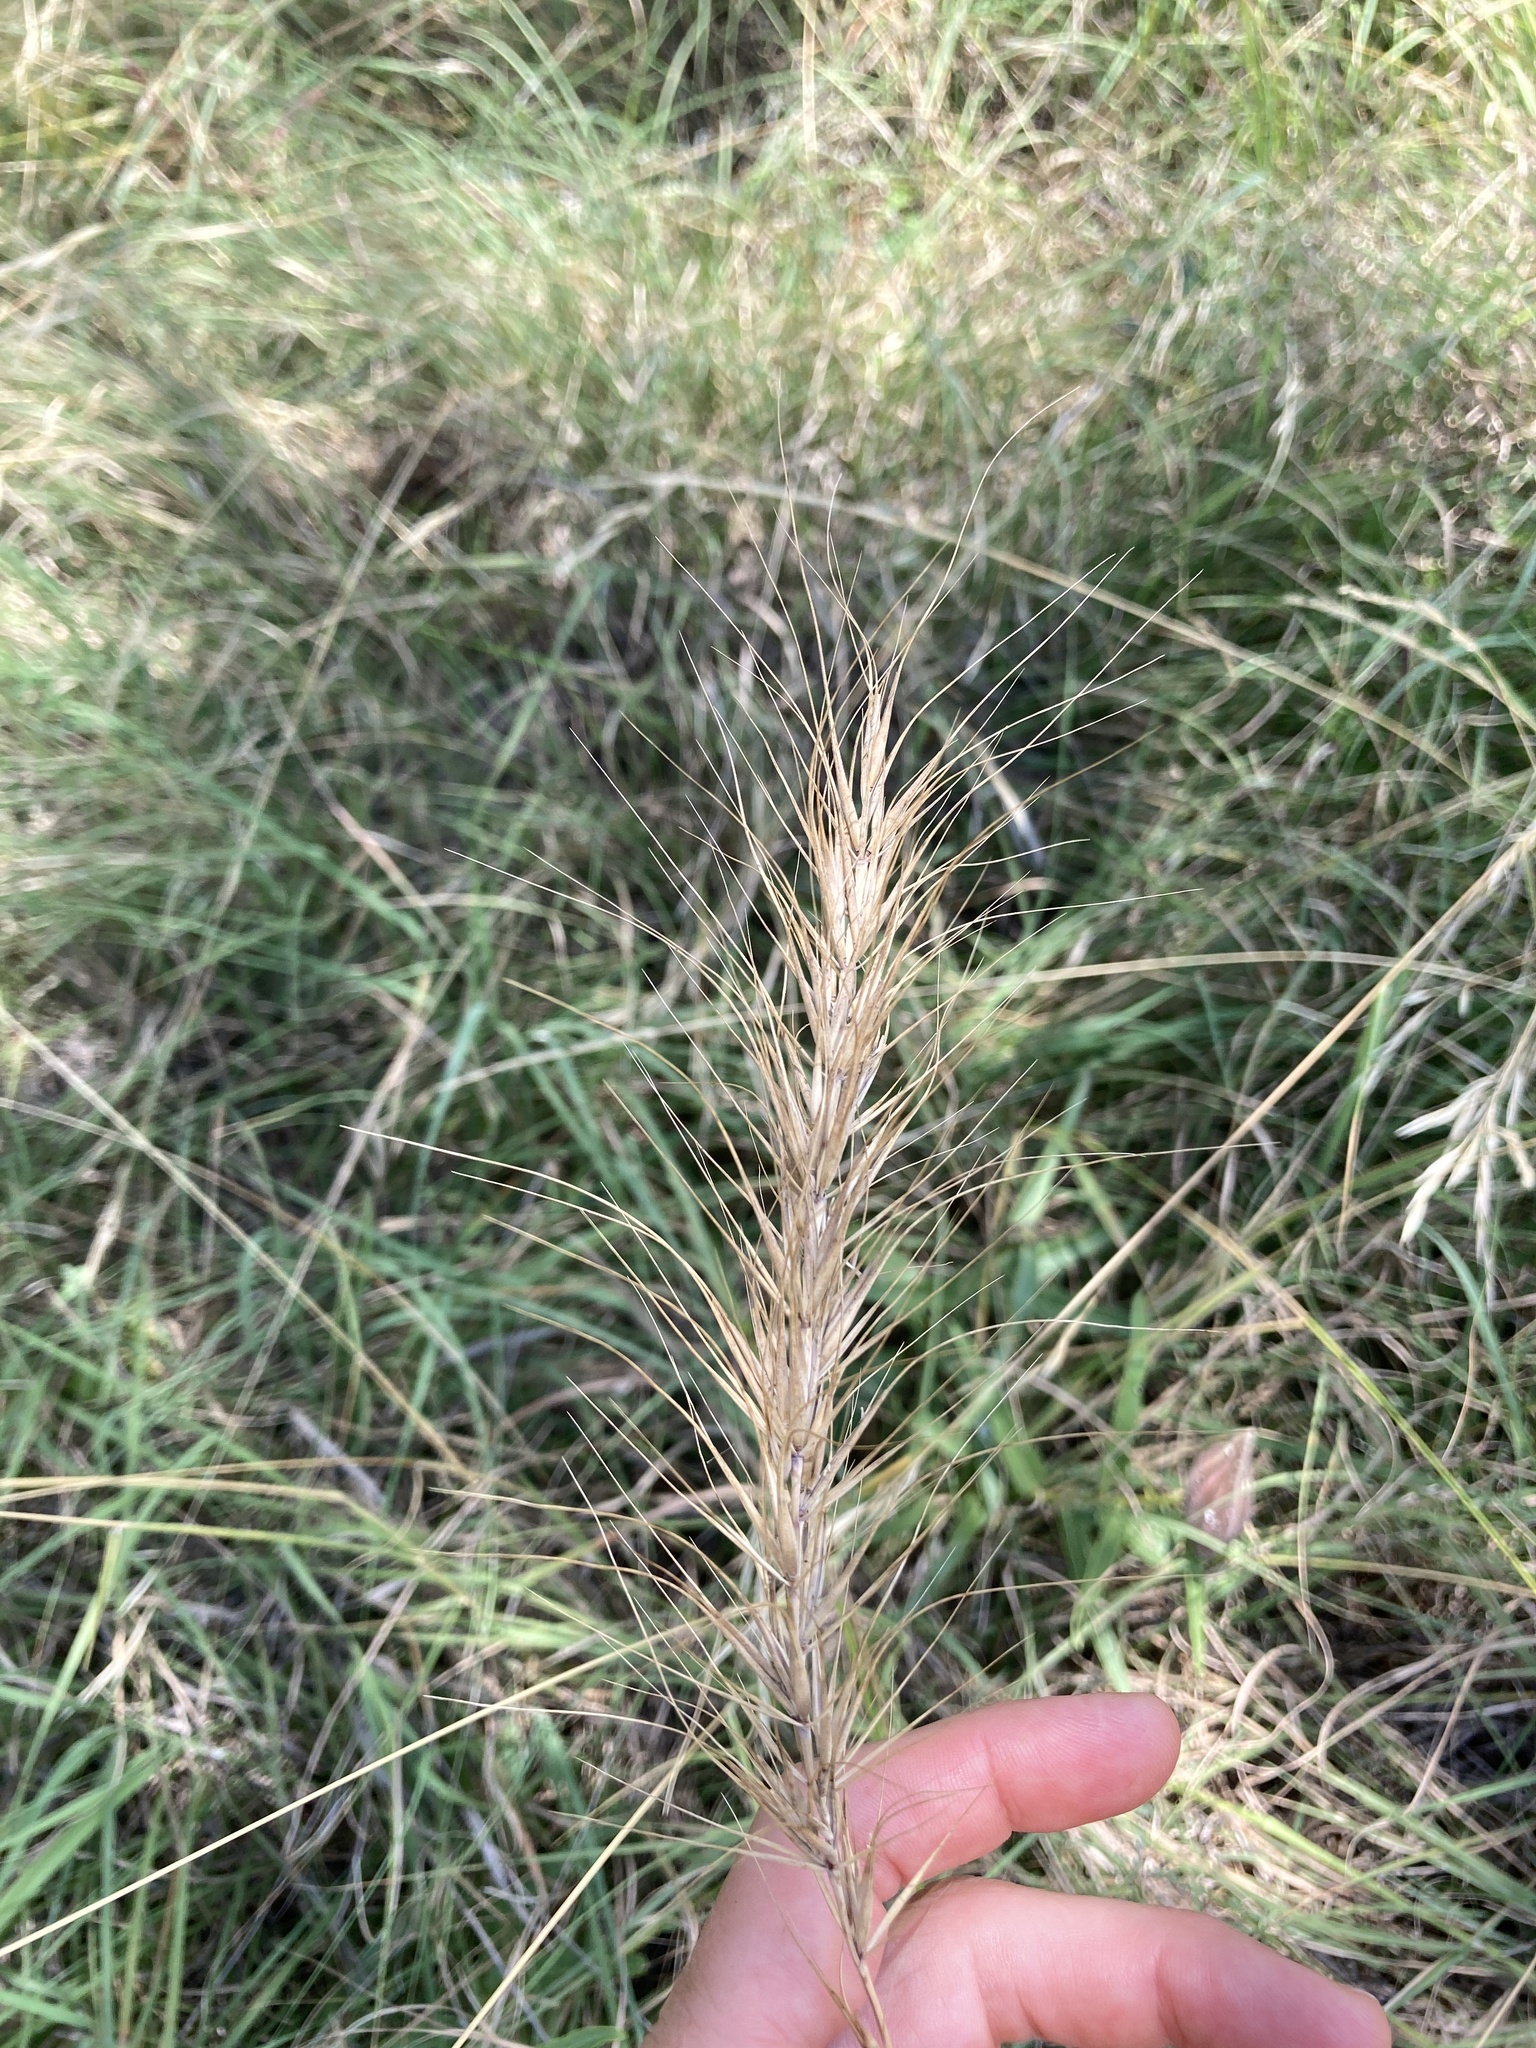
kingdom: Plantae
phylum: Tracheophyta
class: Liliopsida
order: Poales
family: Poaceae
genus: Elymus
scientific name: Elymus canadensis
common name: Canada wild rye
